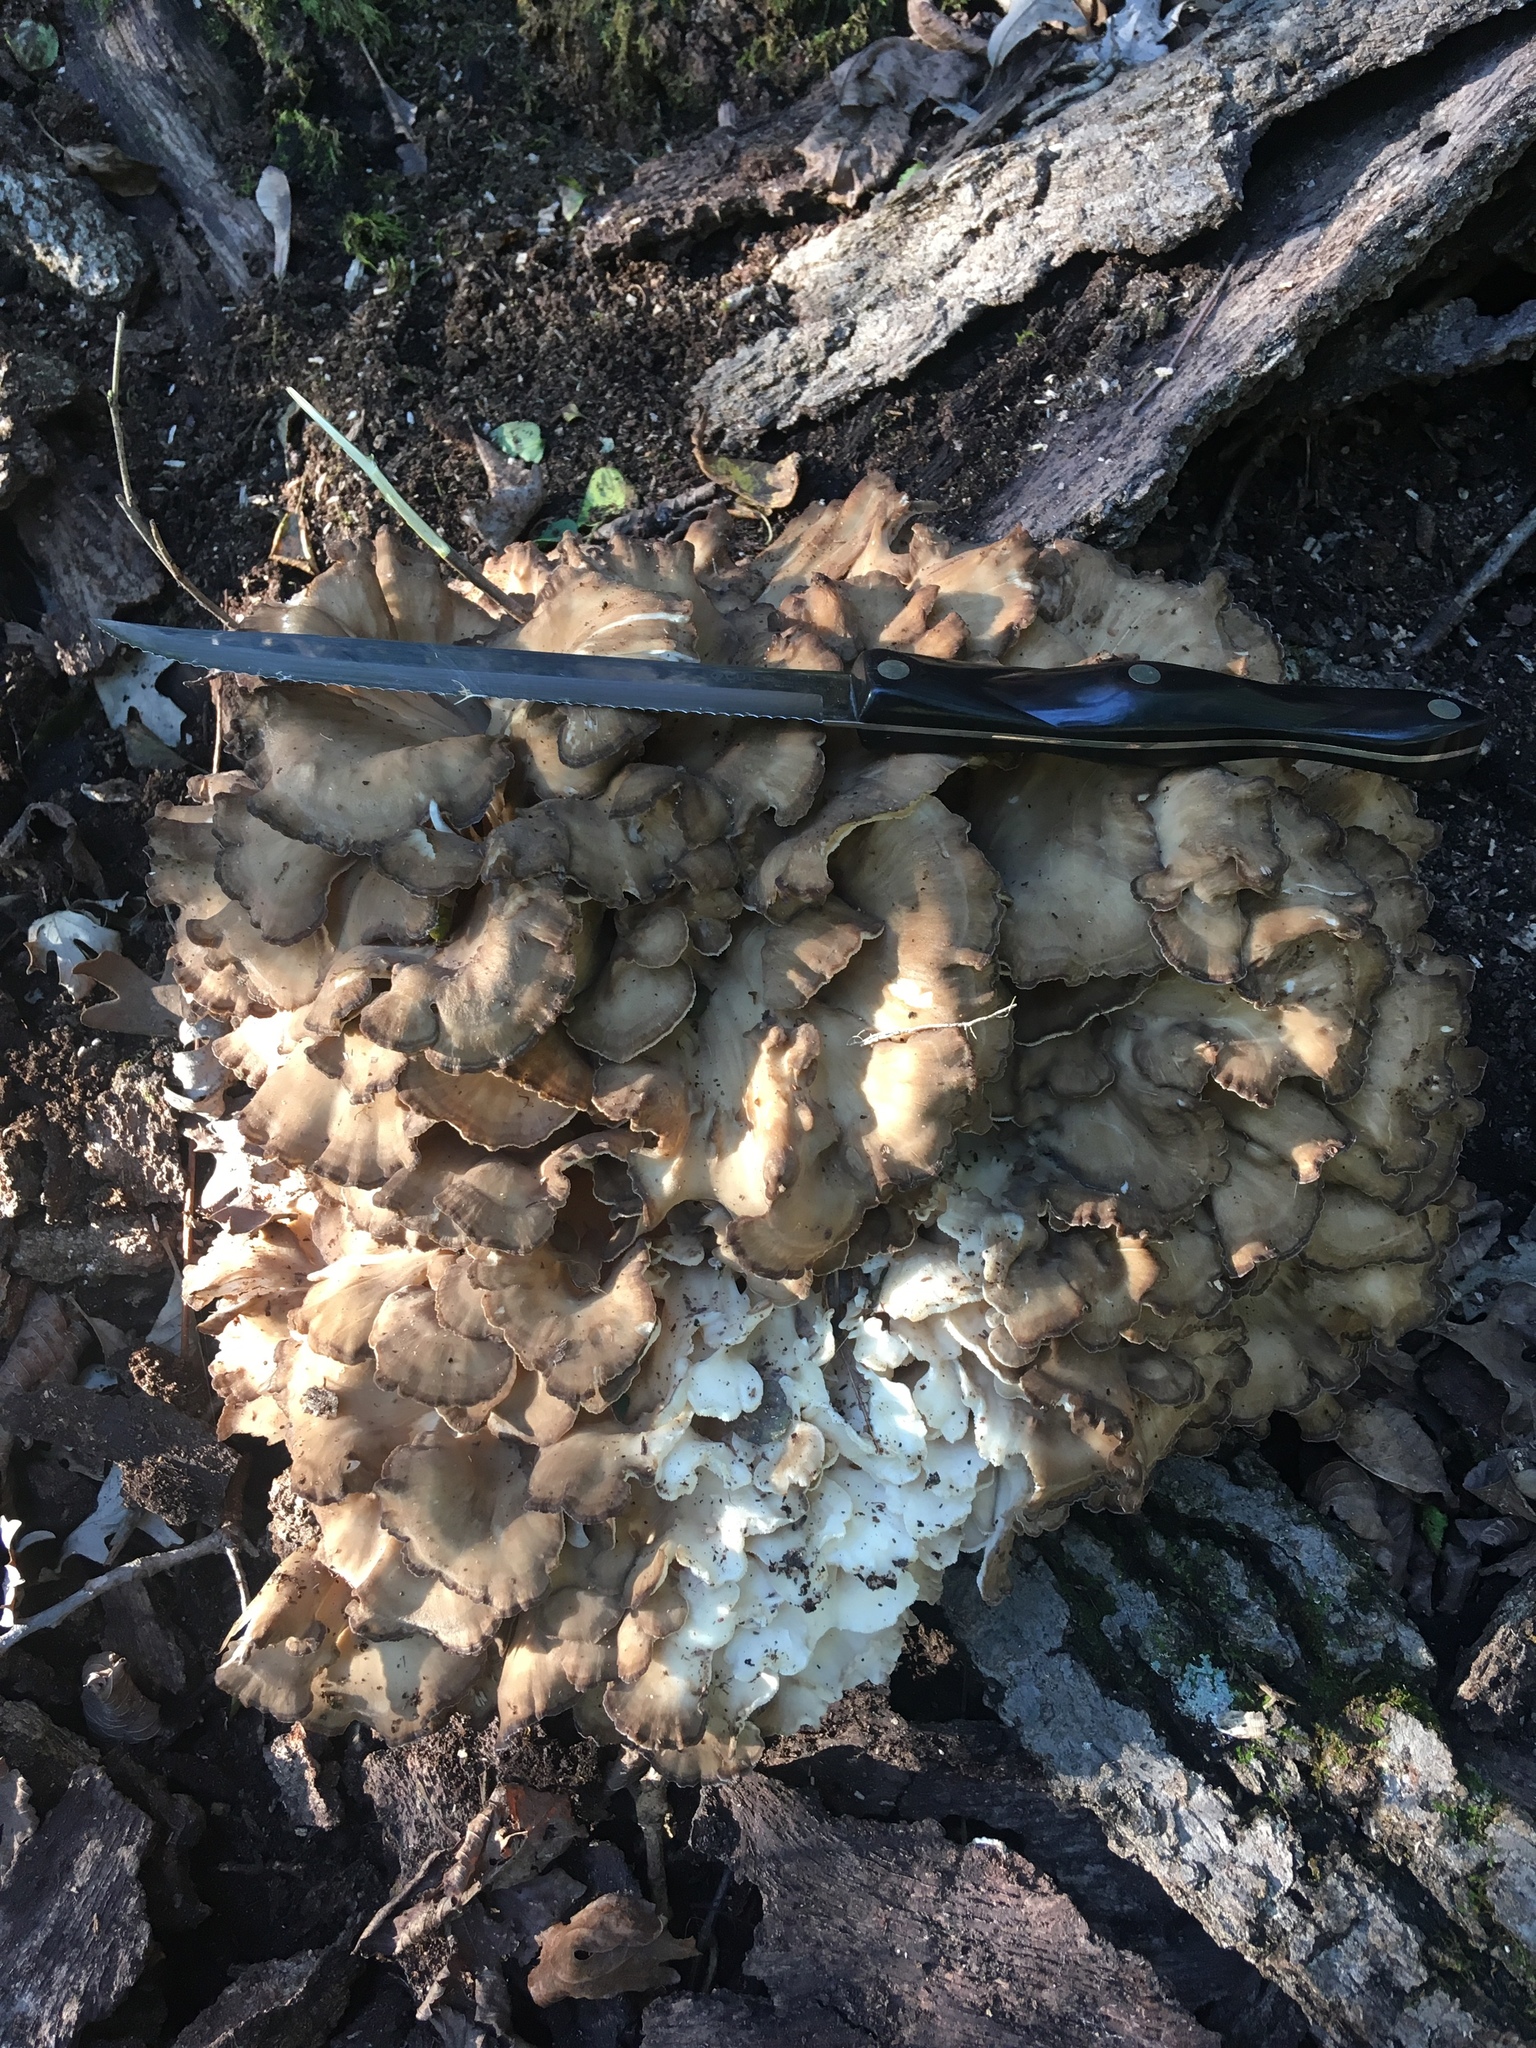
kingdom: Fungi
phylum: Basidiomycota
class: Agaricomycetes
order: Polyporales
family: Grifolaceae
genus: Grifola
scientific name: Grifola frondosa
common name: Hen of the woods
